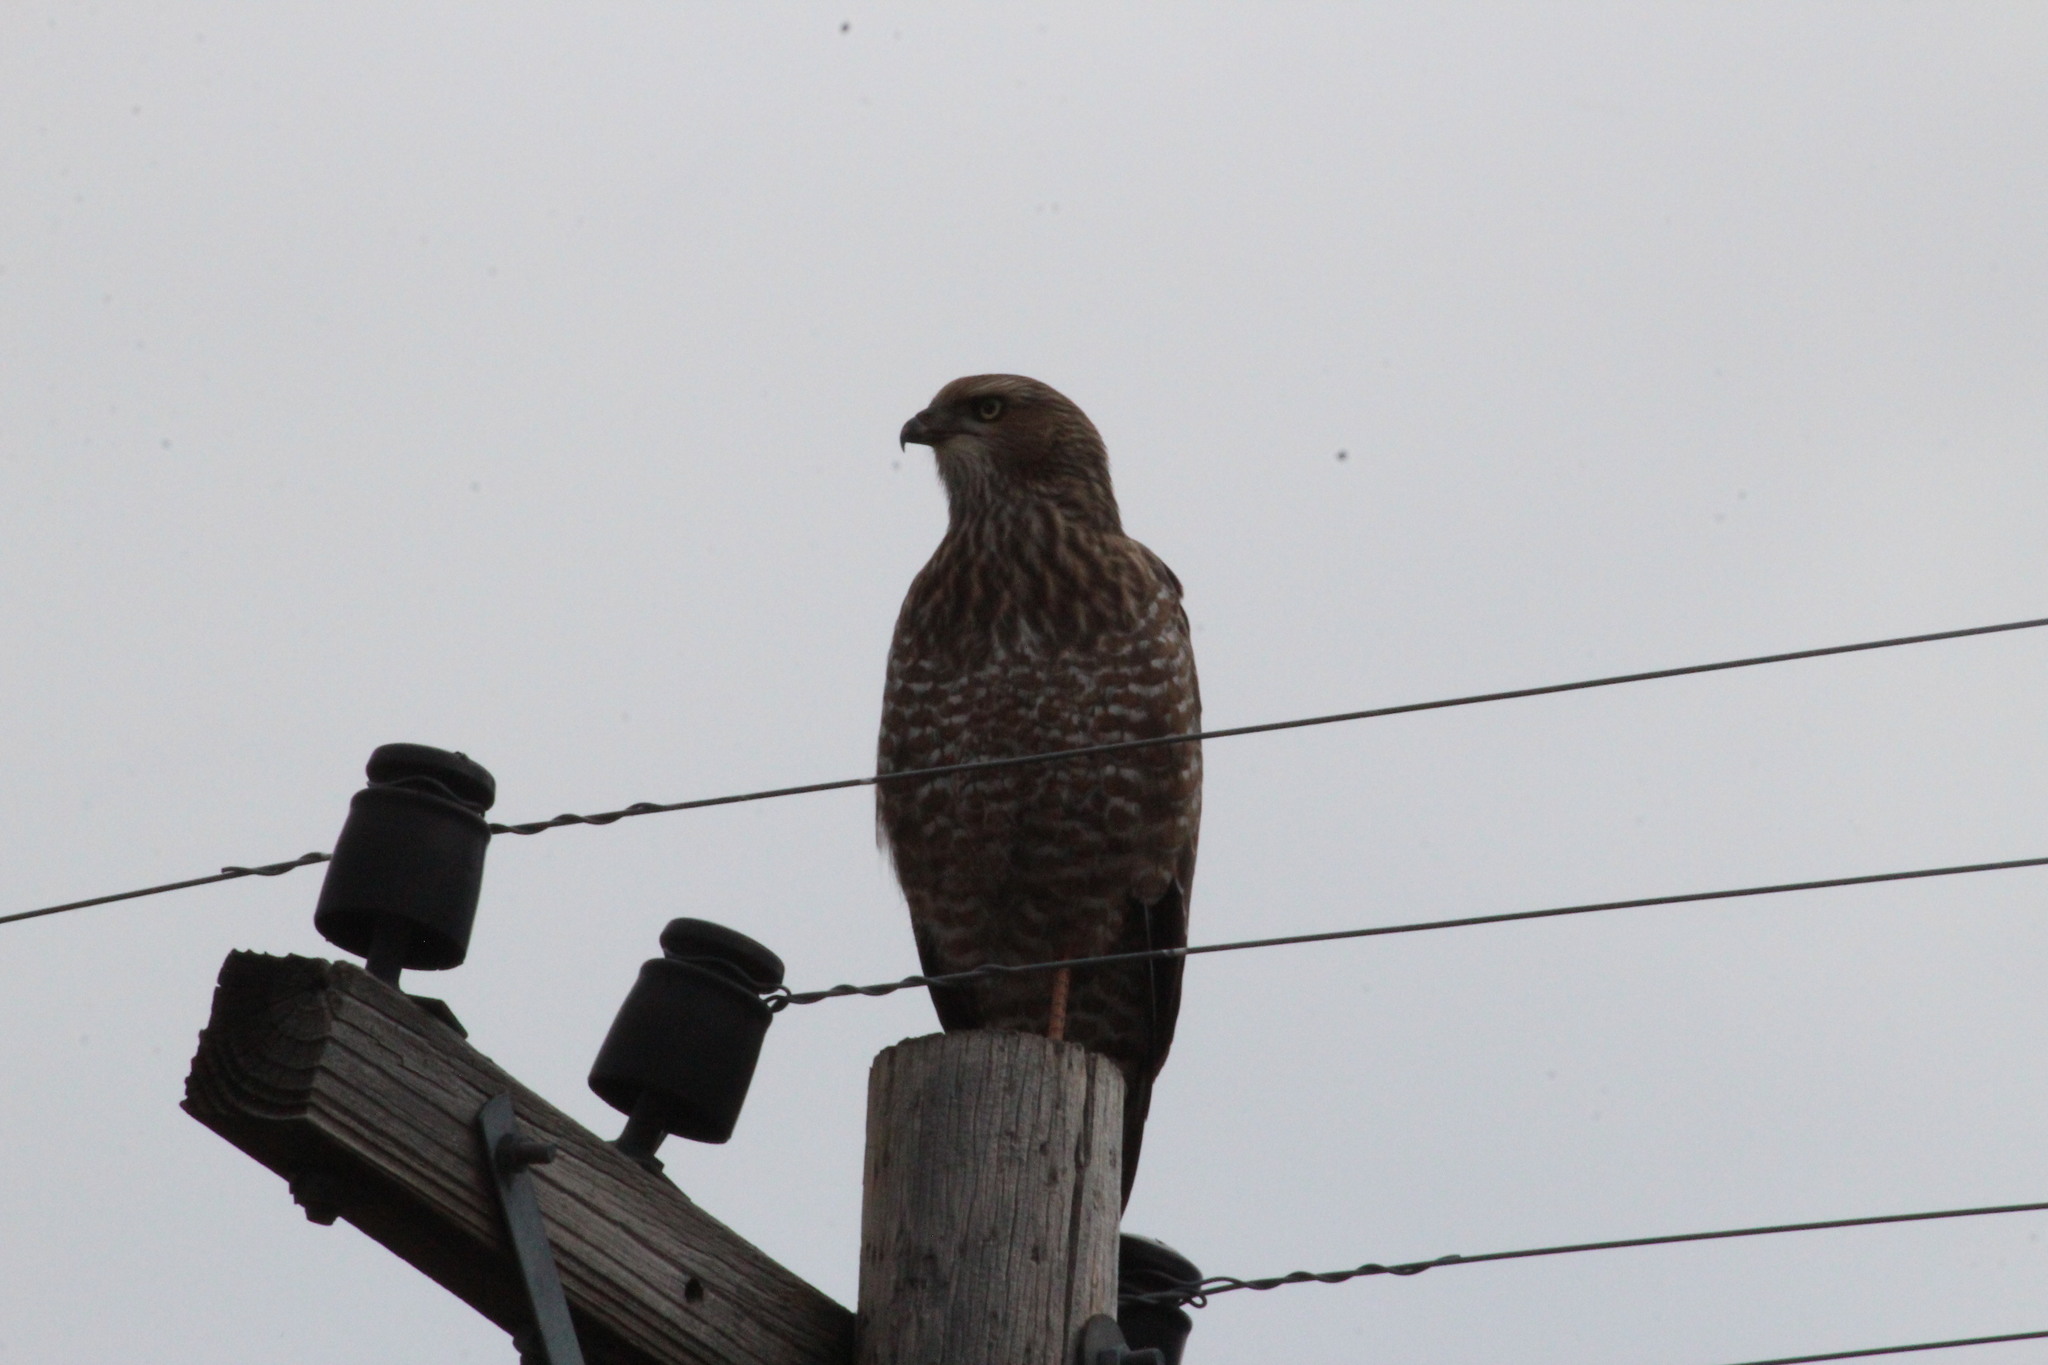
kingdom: Animalia
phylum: Chordata
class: Aves
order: Accipitriformes
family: Accipitridae
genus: Melierax
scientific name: Melierax canorus
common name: Pale chanting-goshawk
